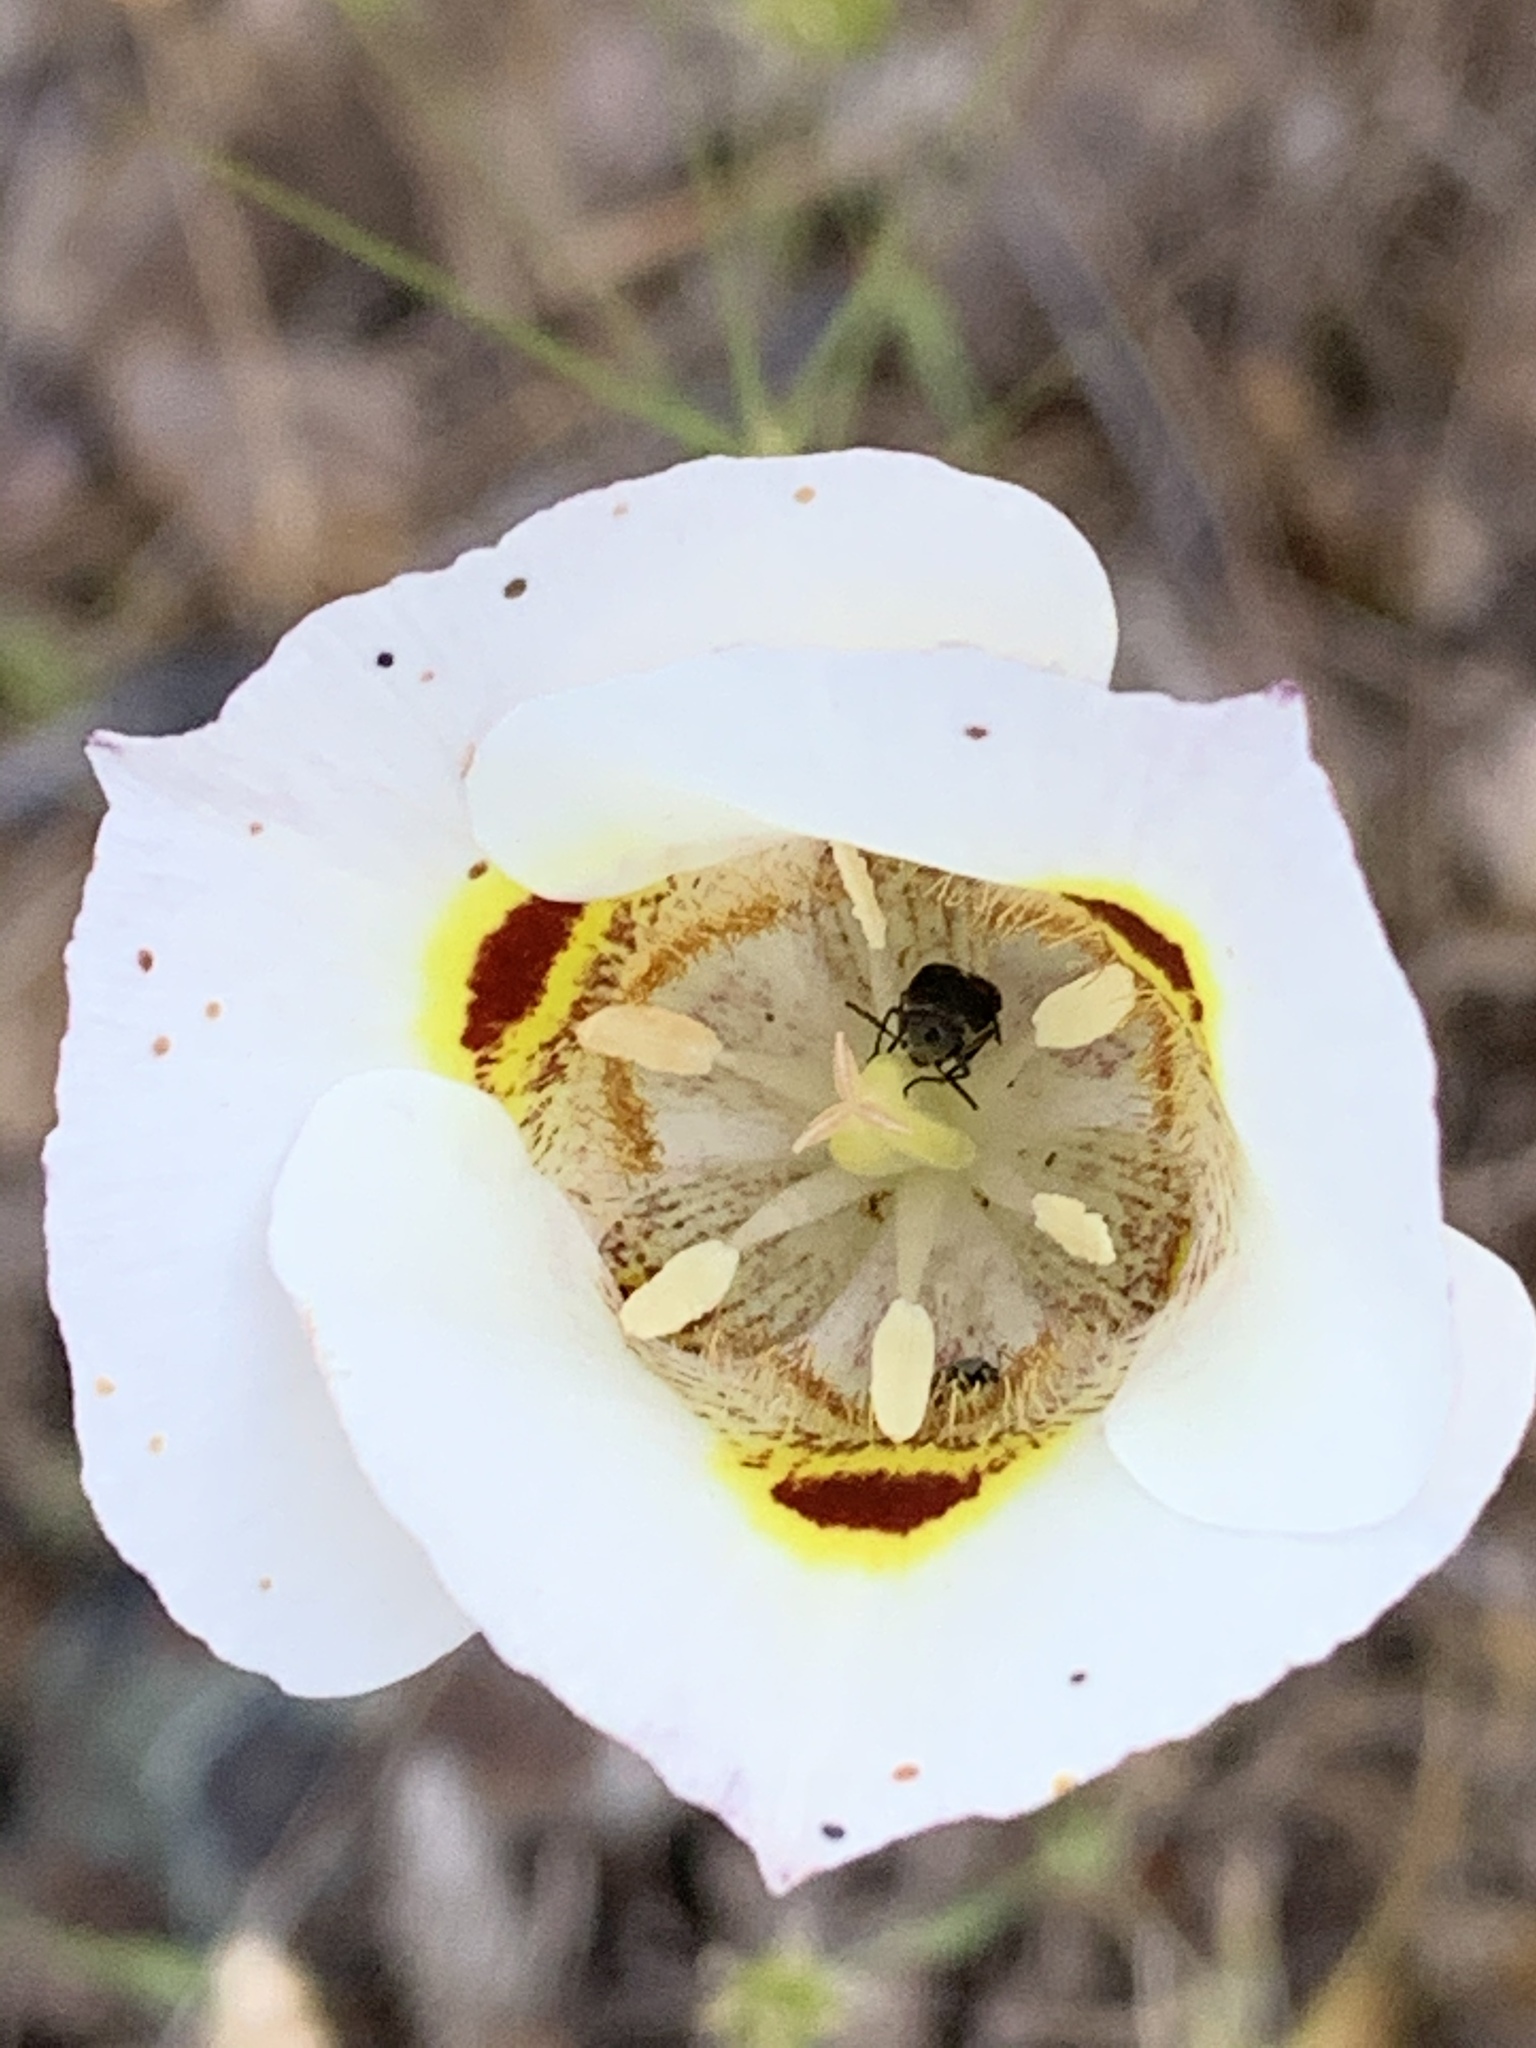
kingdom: Plantae
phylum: Tracheophyta
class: Liliopsida
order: Liliales
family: Liliaceae
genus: Calochortus
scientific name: Calochortus superbus
